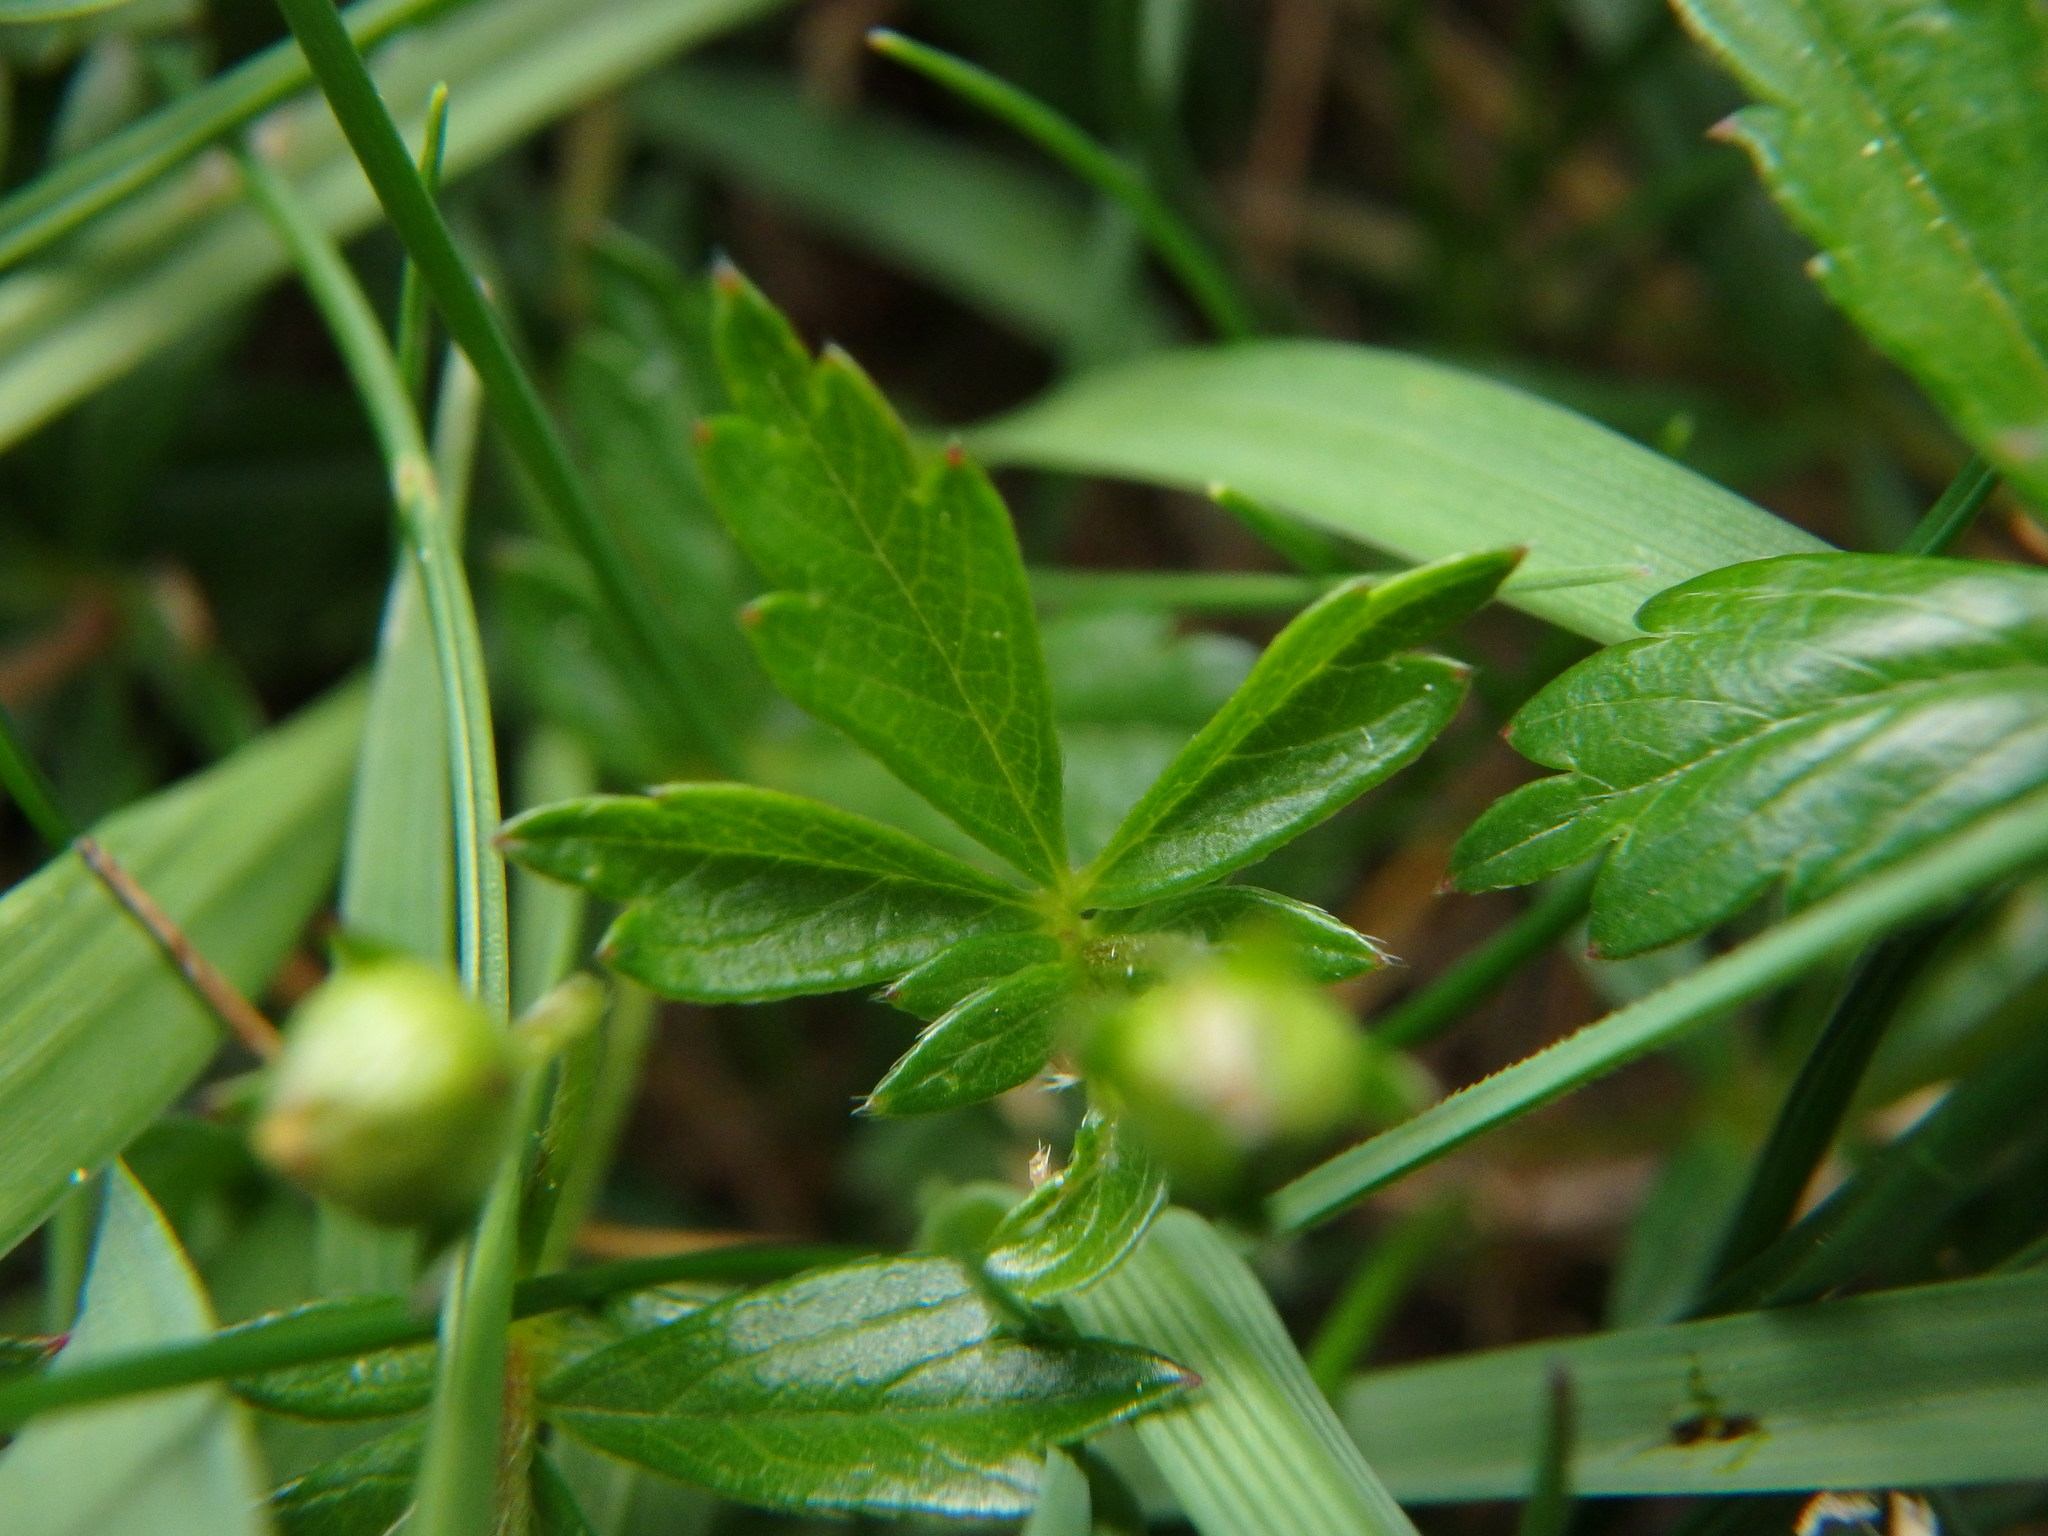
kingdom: Plantae
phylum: Tracheophyta
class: Magnoliopsida
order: Rosales
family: Rosaceae
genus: Potentilla
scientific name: Potentilla erecta
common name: Tormentil
